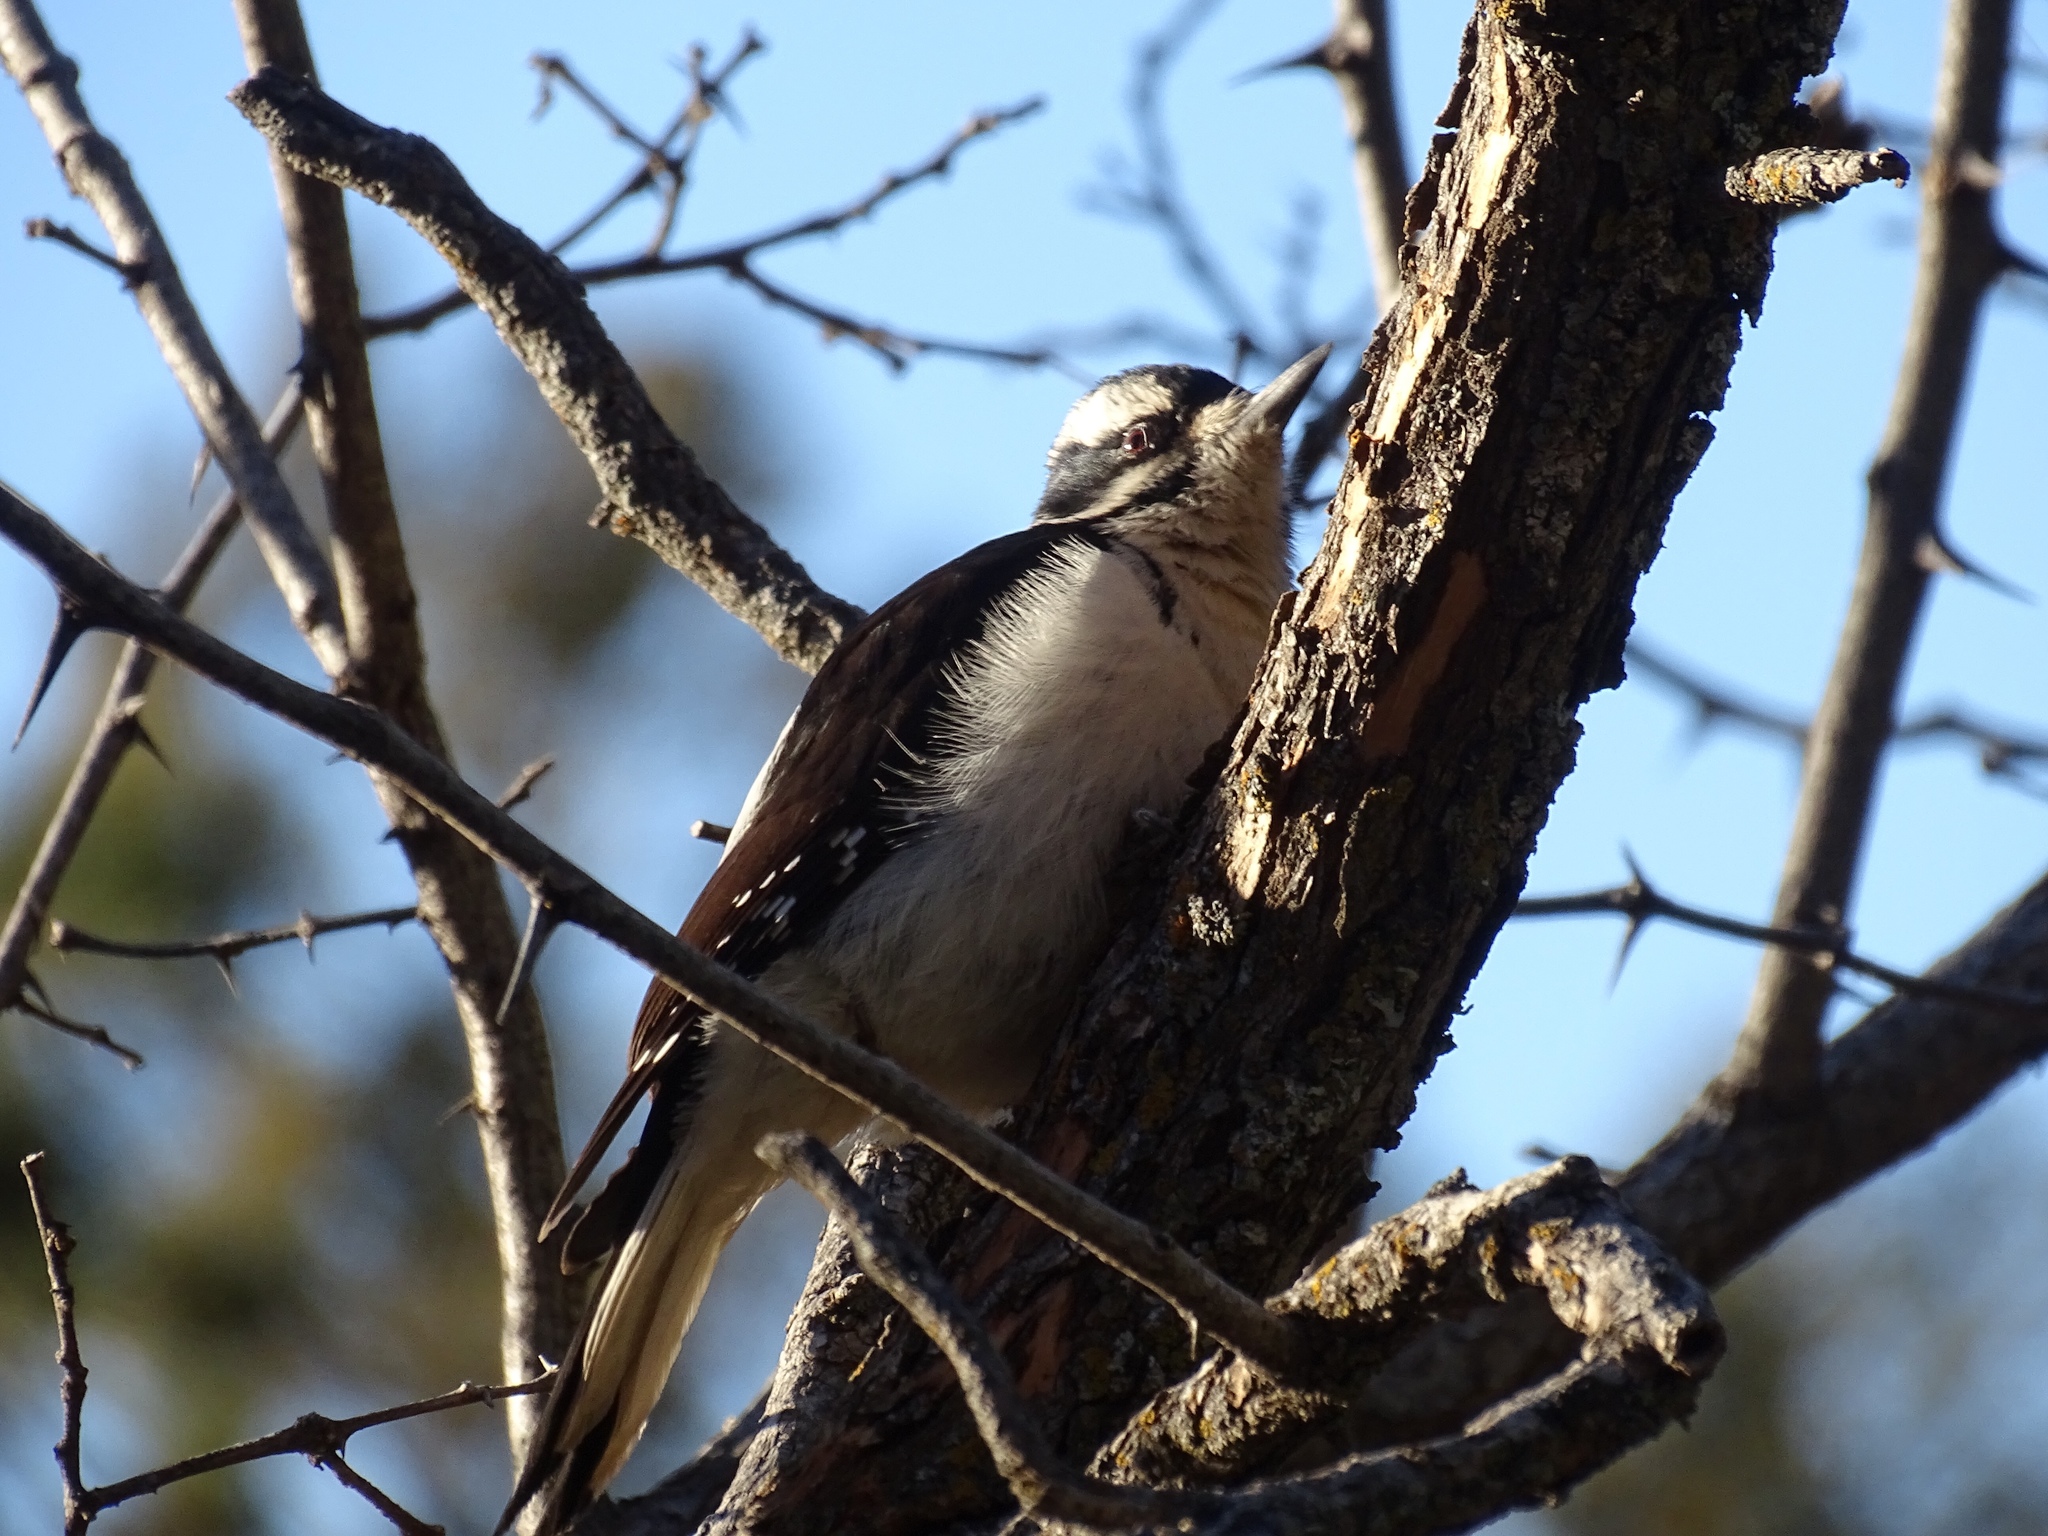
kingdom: Animalia
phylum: Chordata
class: Aves
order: Piciformes
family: Picidae
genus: Leuconotopicus
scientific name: Leuconotopicus villosus
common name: Hairy woodpecker
